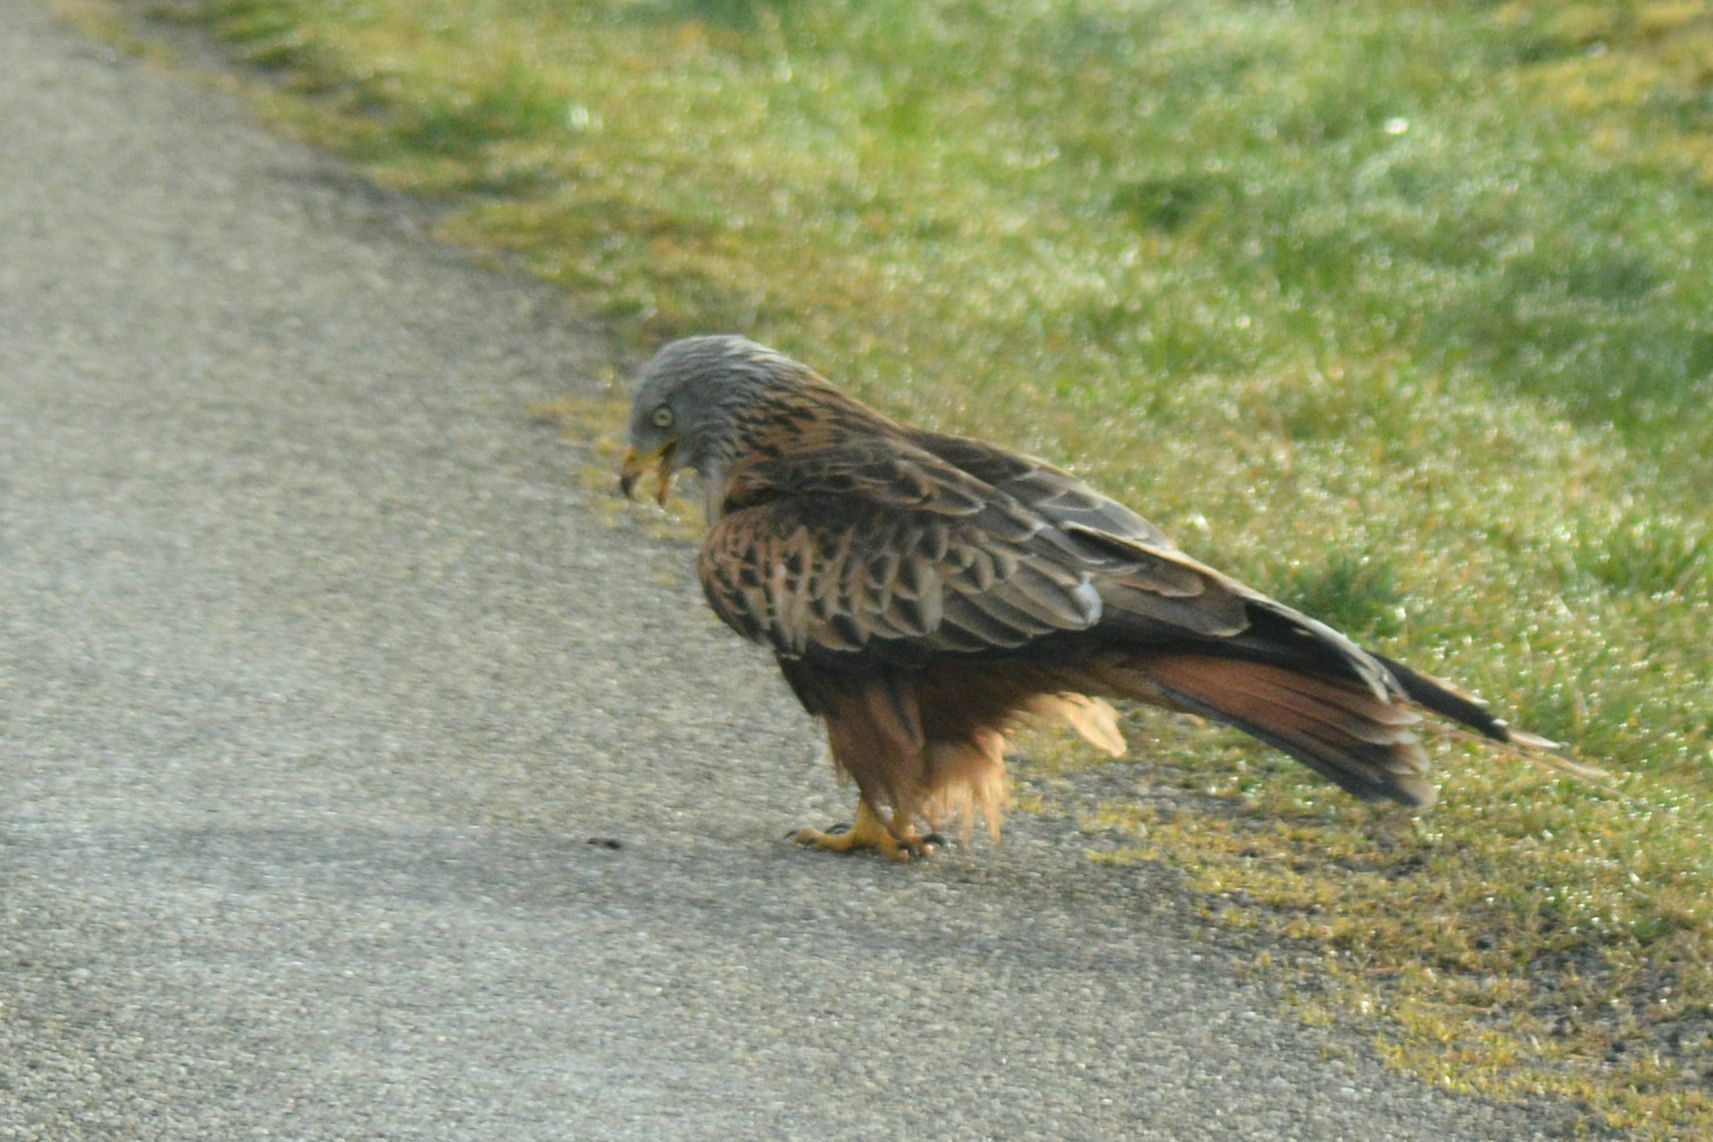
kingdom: Animalia
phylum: Chordata
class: Aves
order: Accipitriformes
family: Accipitridae
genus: Milvus
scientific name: Milvus milvus
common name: Red kite
